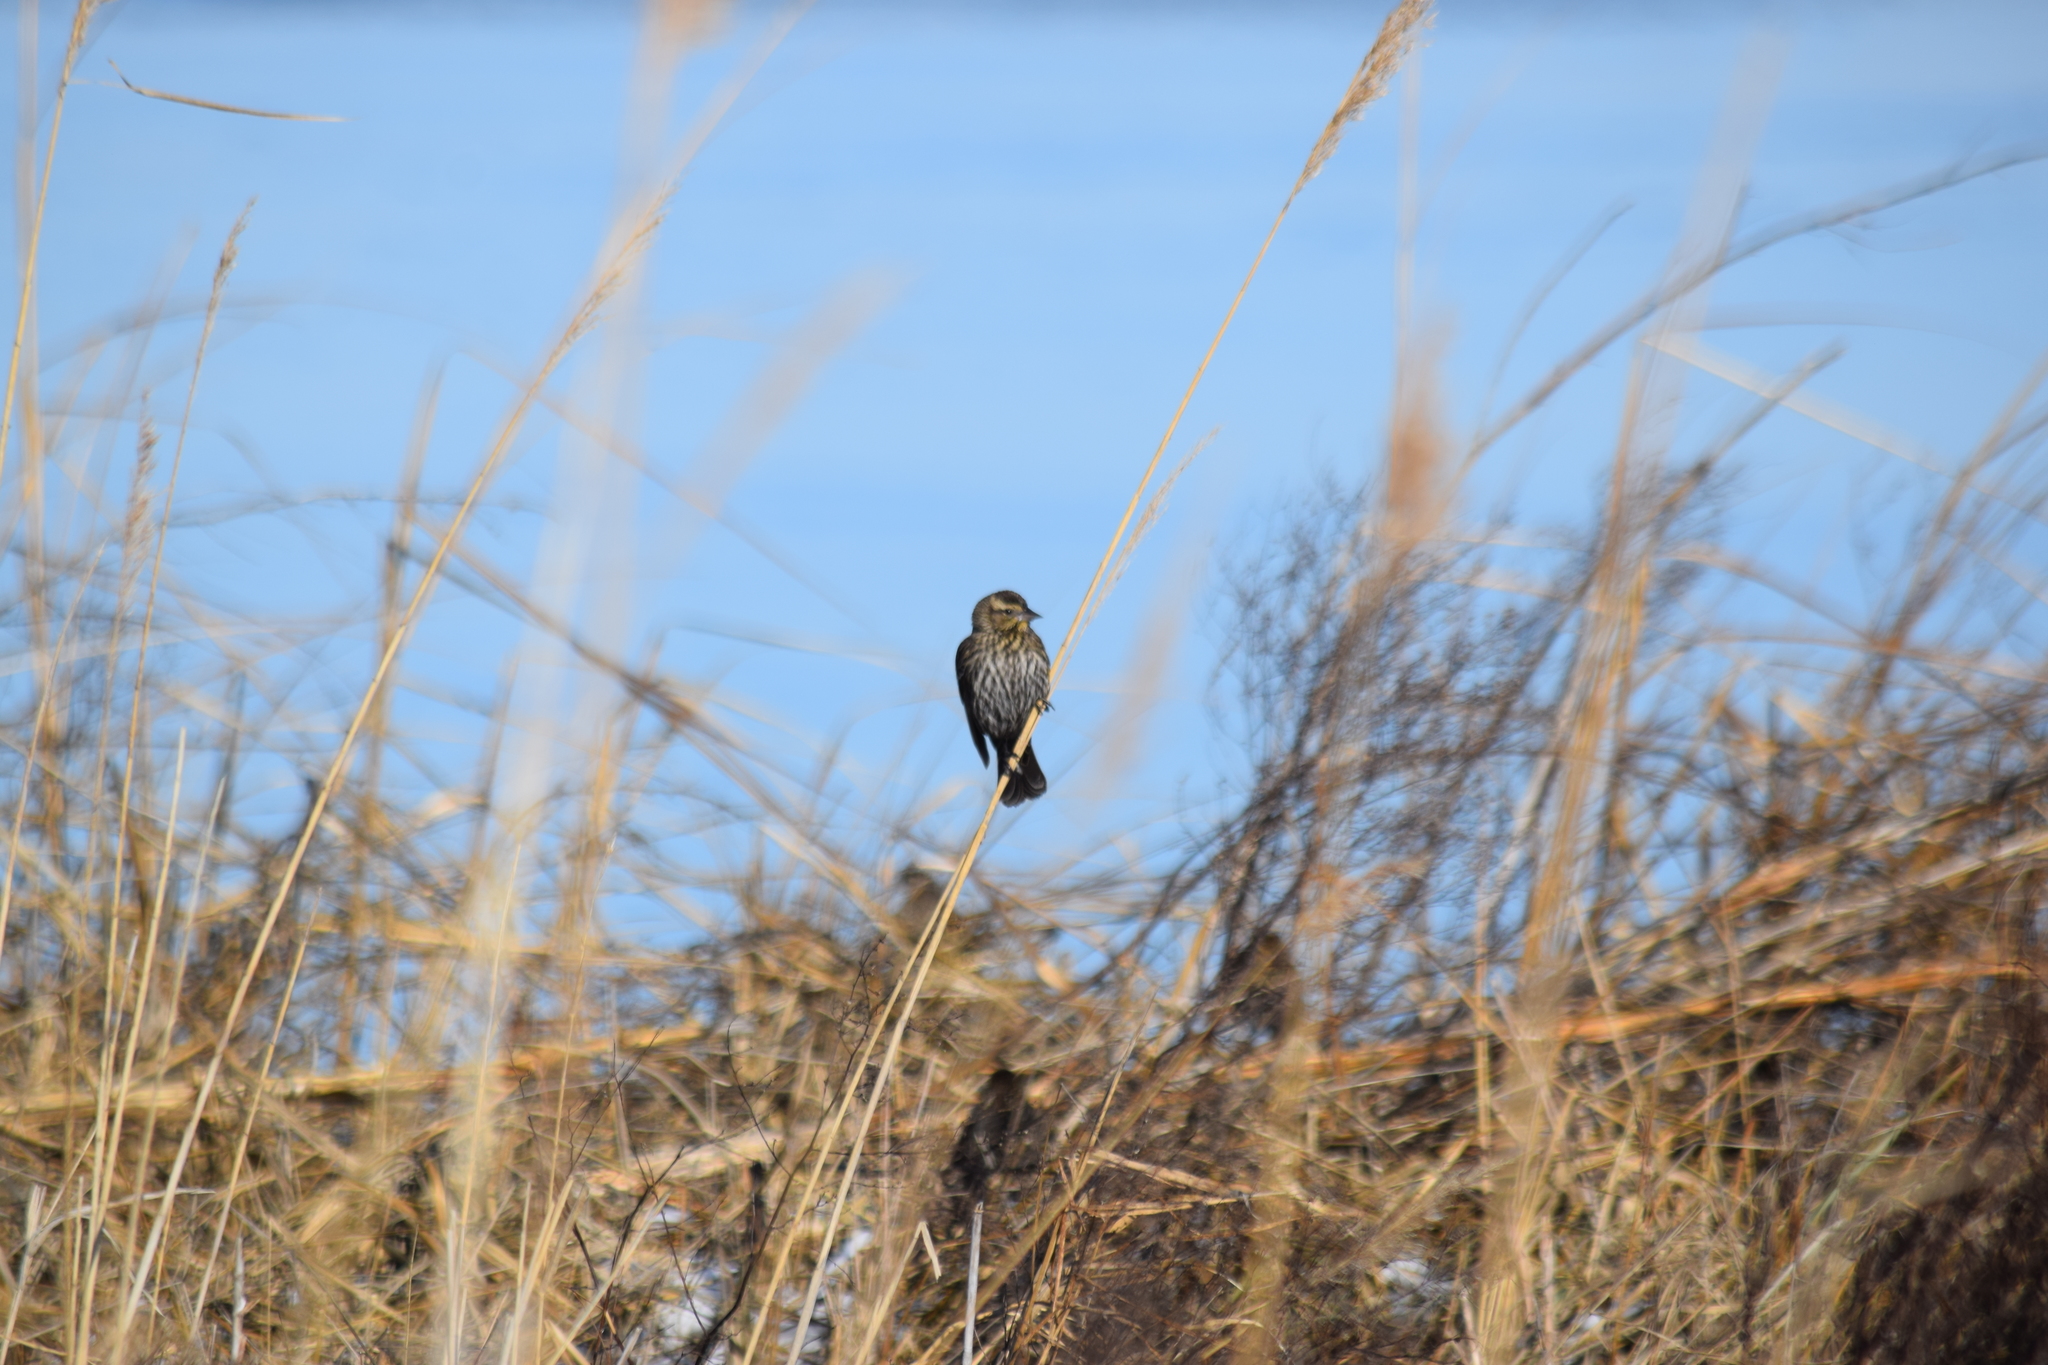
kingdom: Animalia
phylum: Chordata
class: Aves
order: Passeriformes
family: Icteridae
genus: Agelaius
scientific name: Agelaius phoeniceus
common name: Red-winged blackbird
